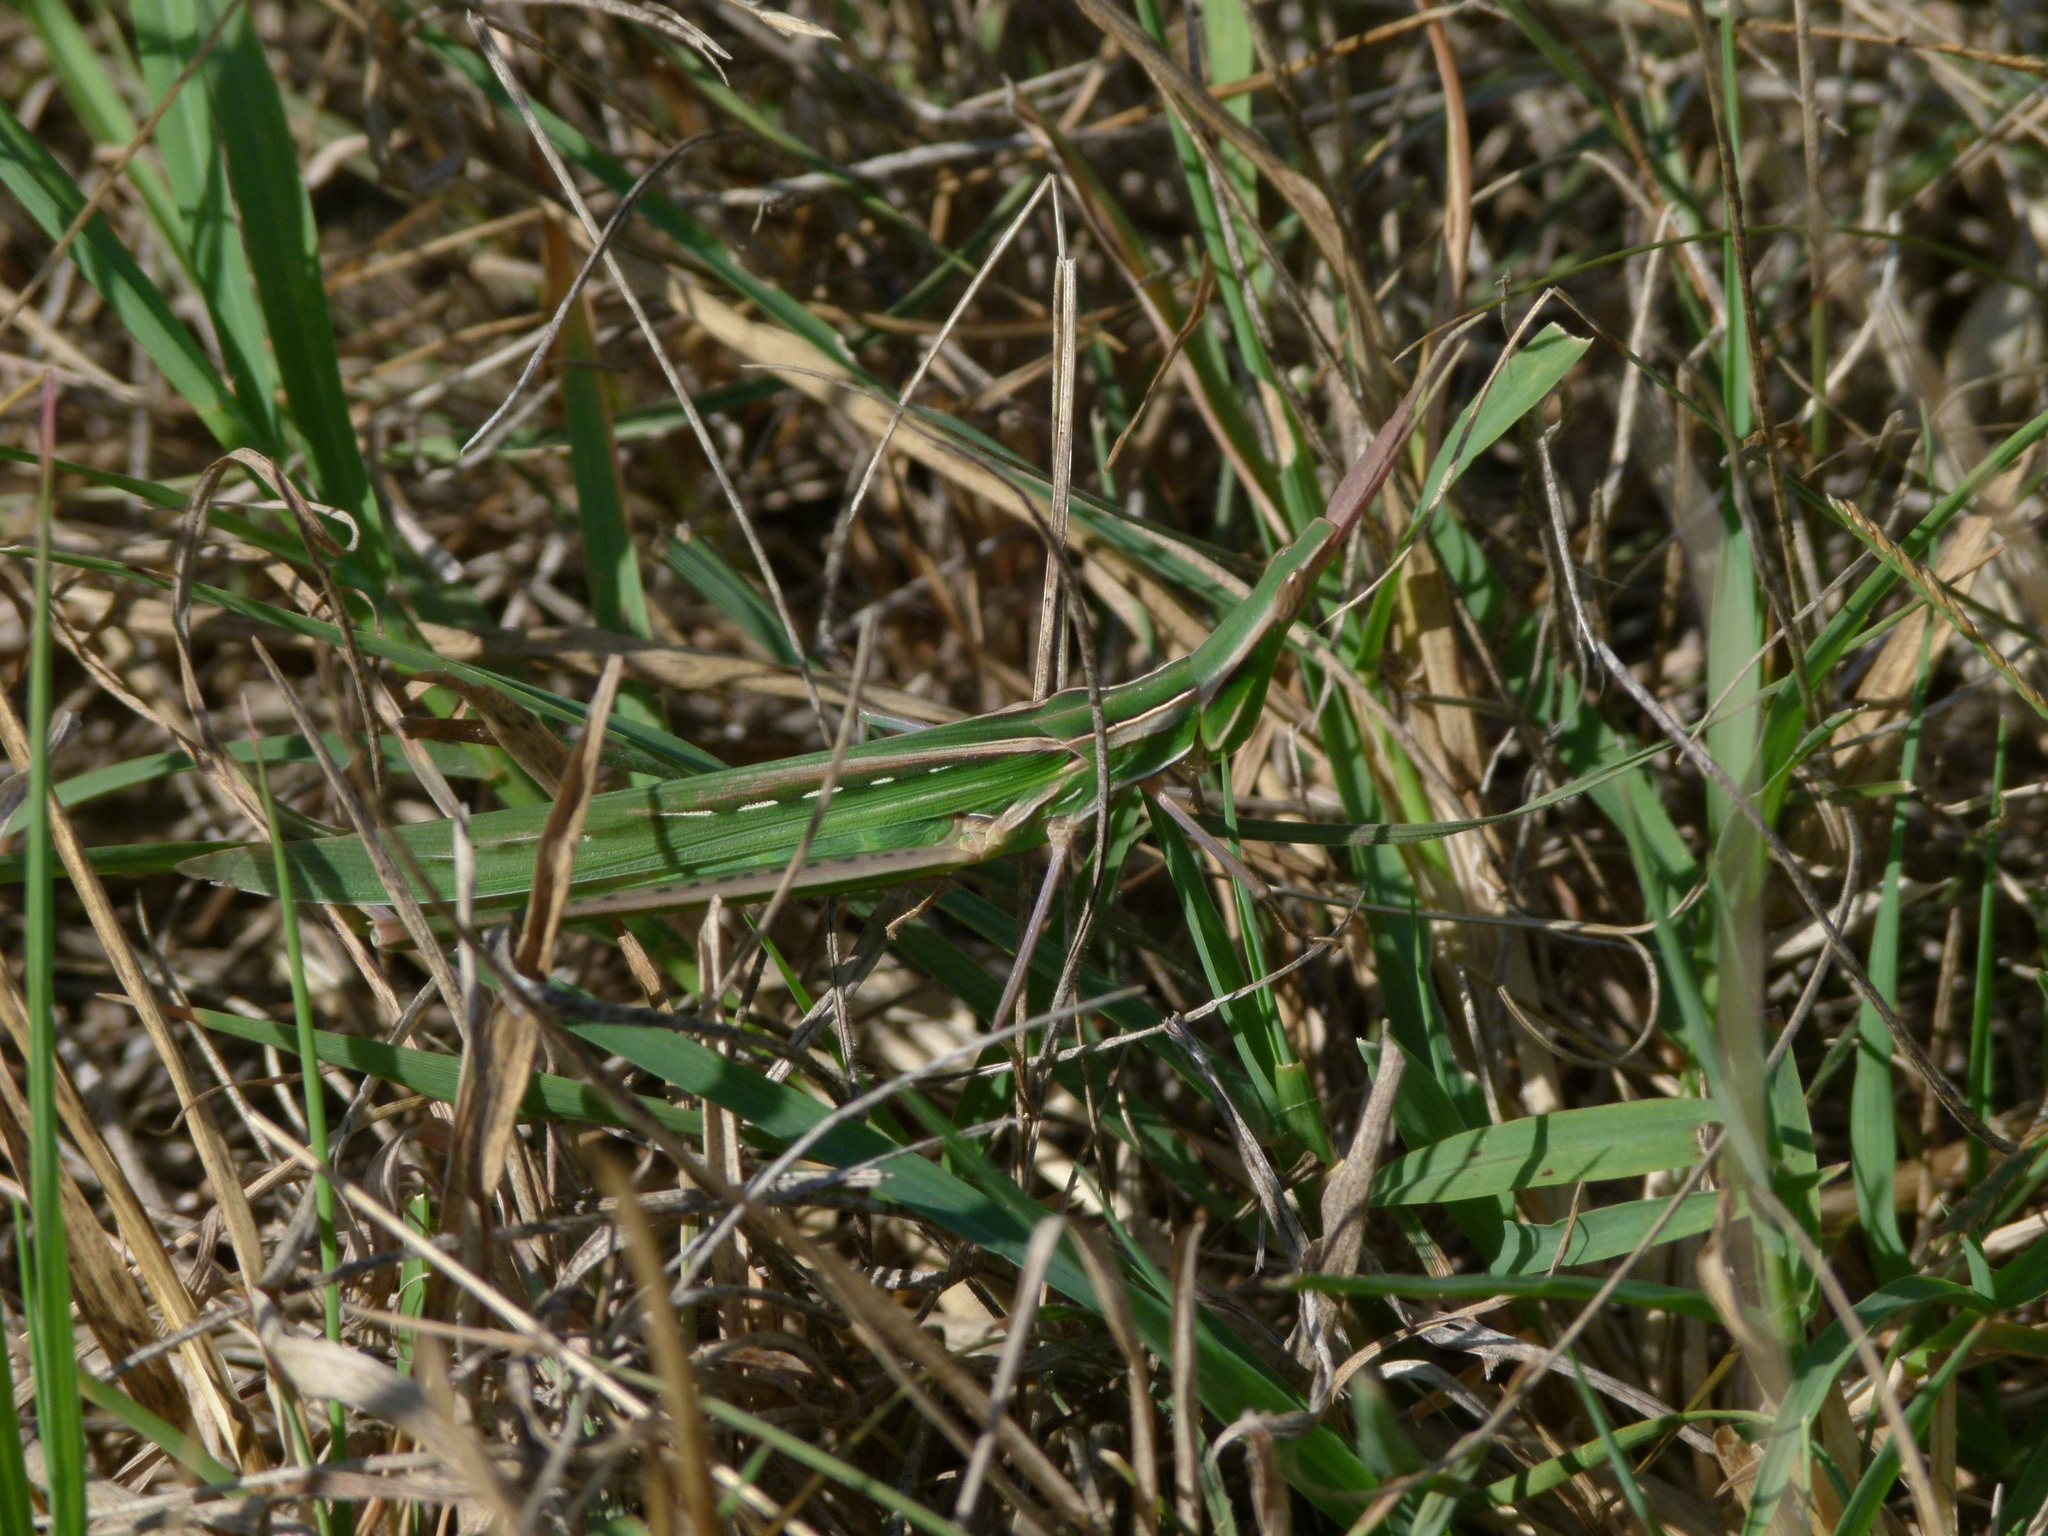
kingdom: Animalia
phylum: Arthropoda
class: Insecta
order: Orthoptera
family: Acrididae
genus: Acrida
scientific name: Acrida ungarica
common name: Common cone-headed grasshopper
